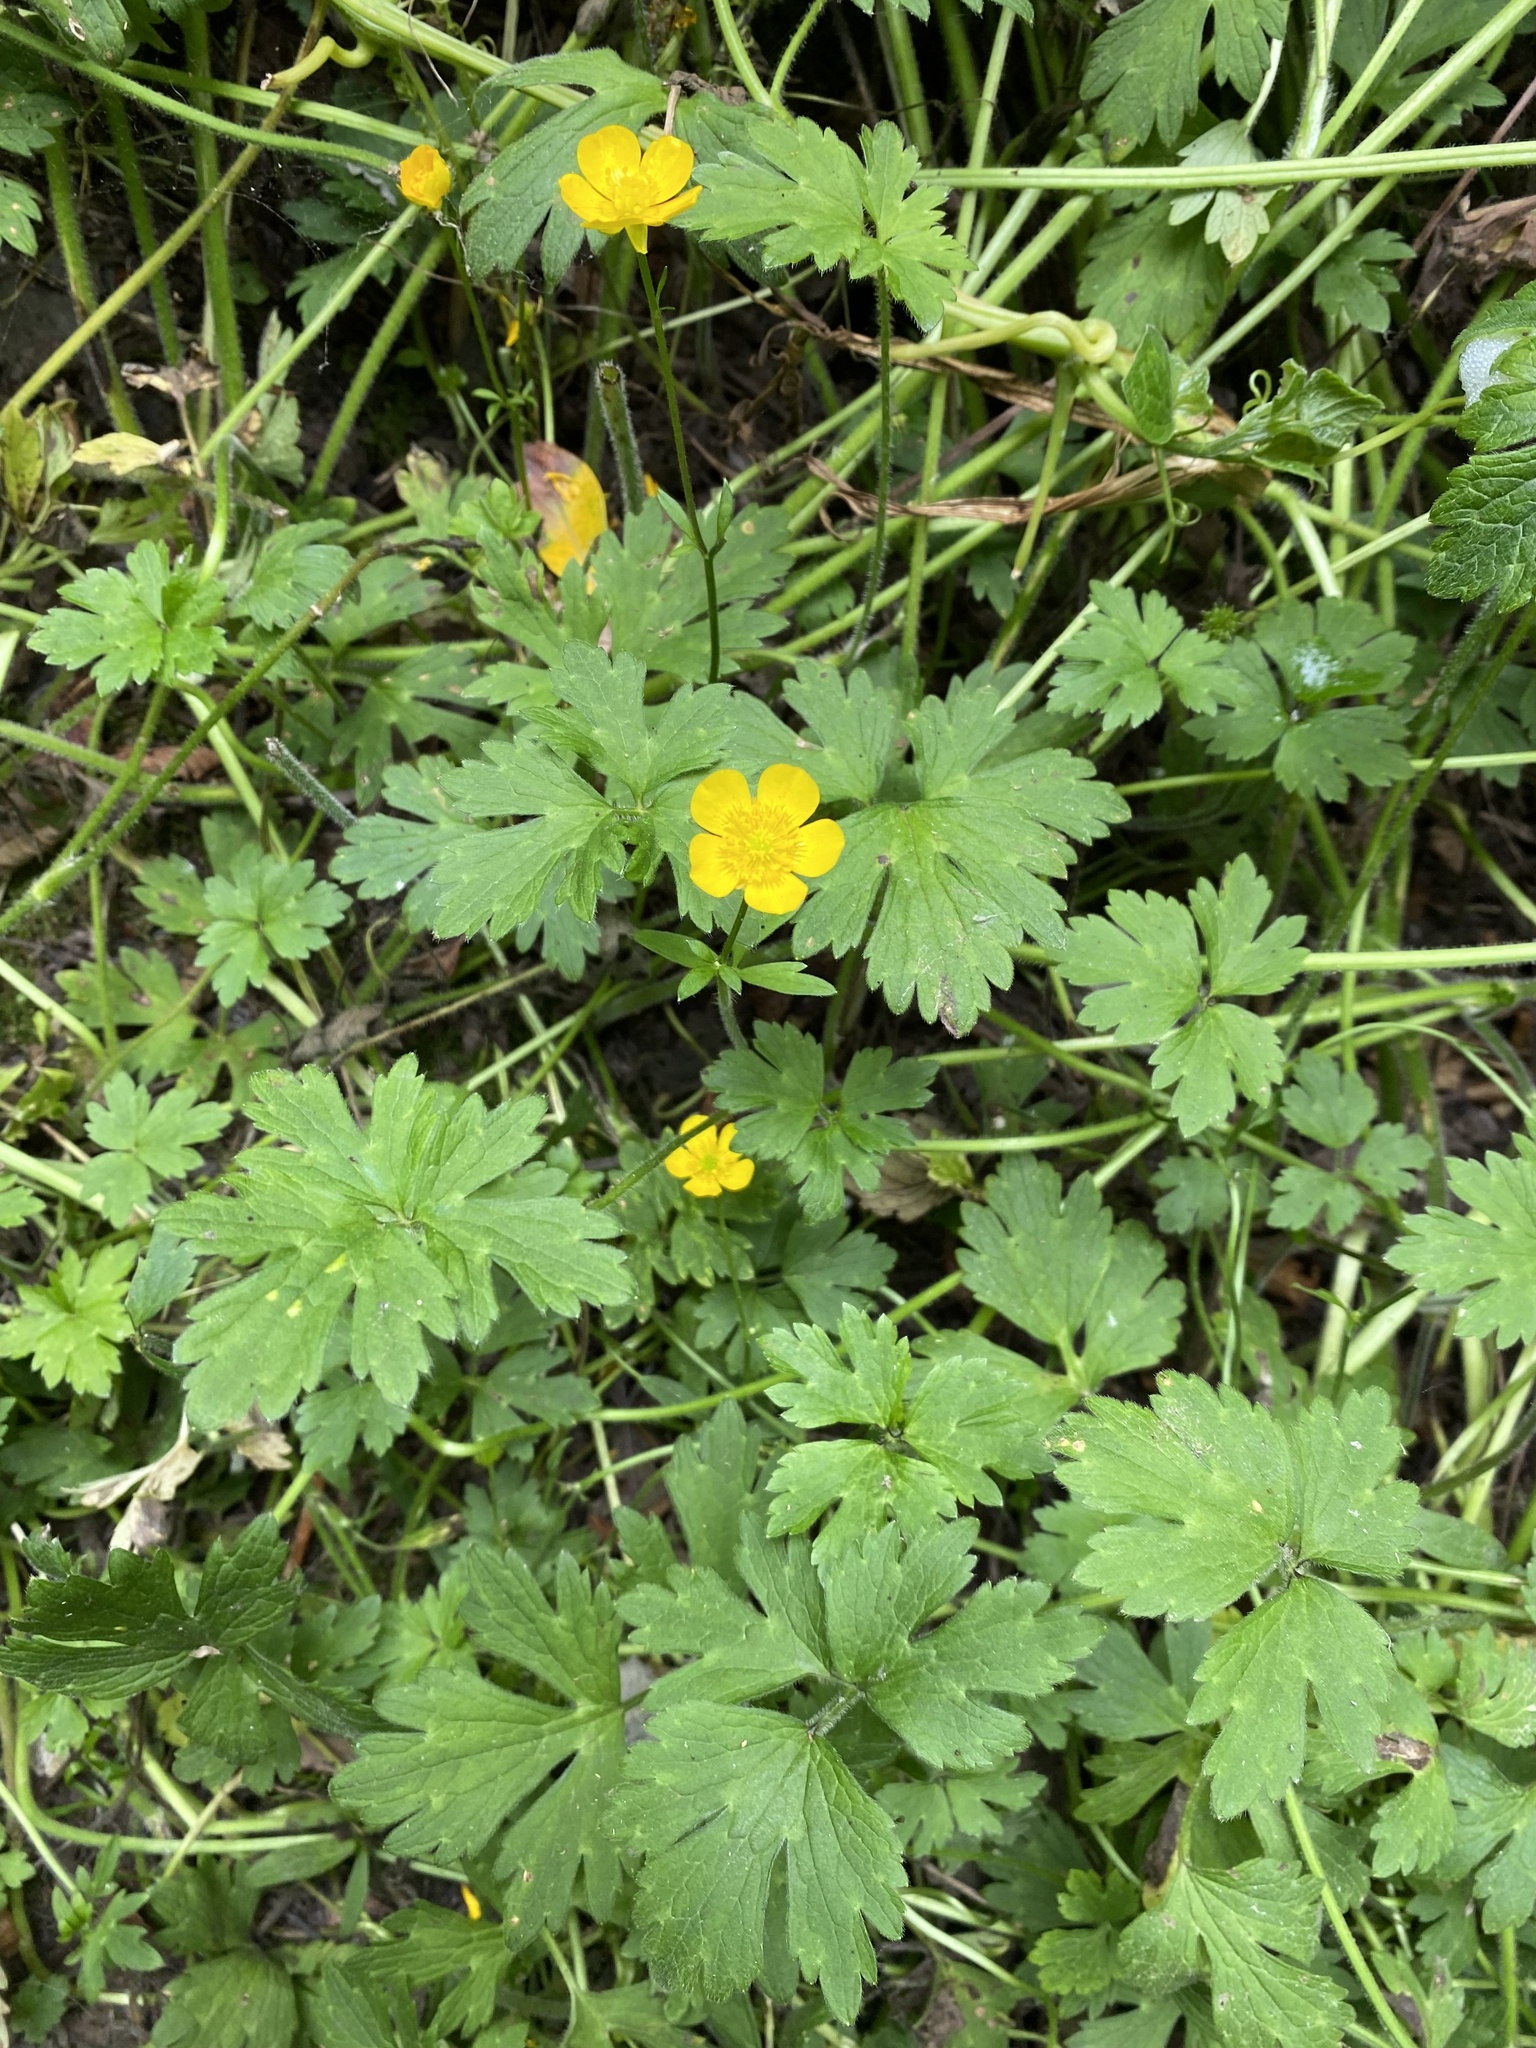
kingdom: Plantae
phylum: Tracheophyta
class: Magnoliopsida
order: Ranunculales
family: Ranunculaceae
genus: Ranunculus
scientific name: Ranunculus repens
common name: Creeping buttercup
